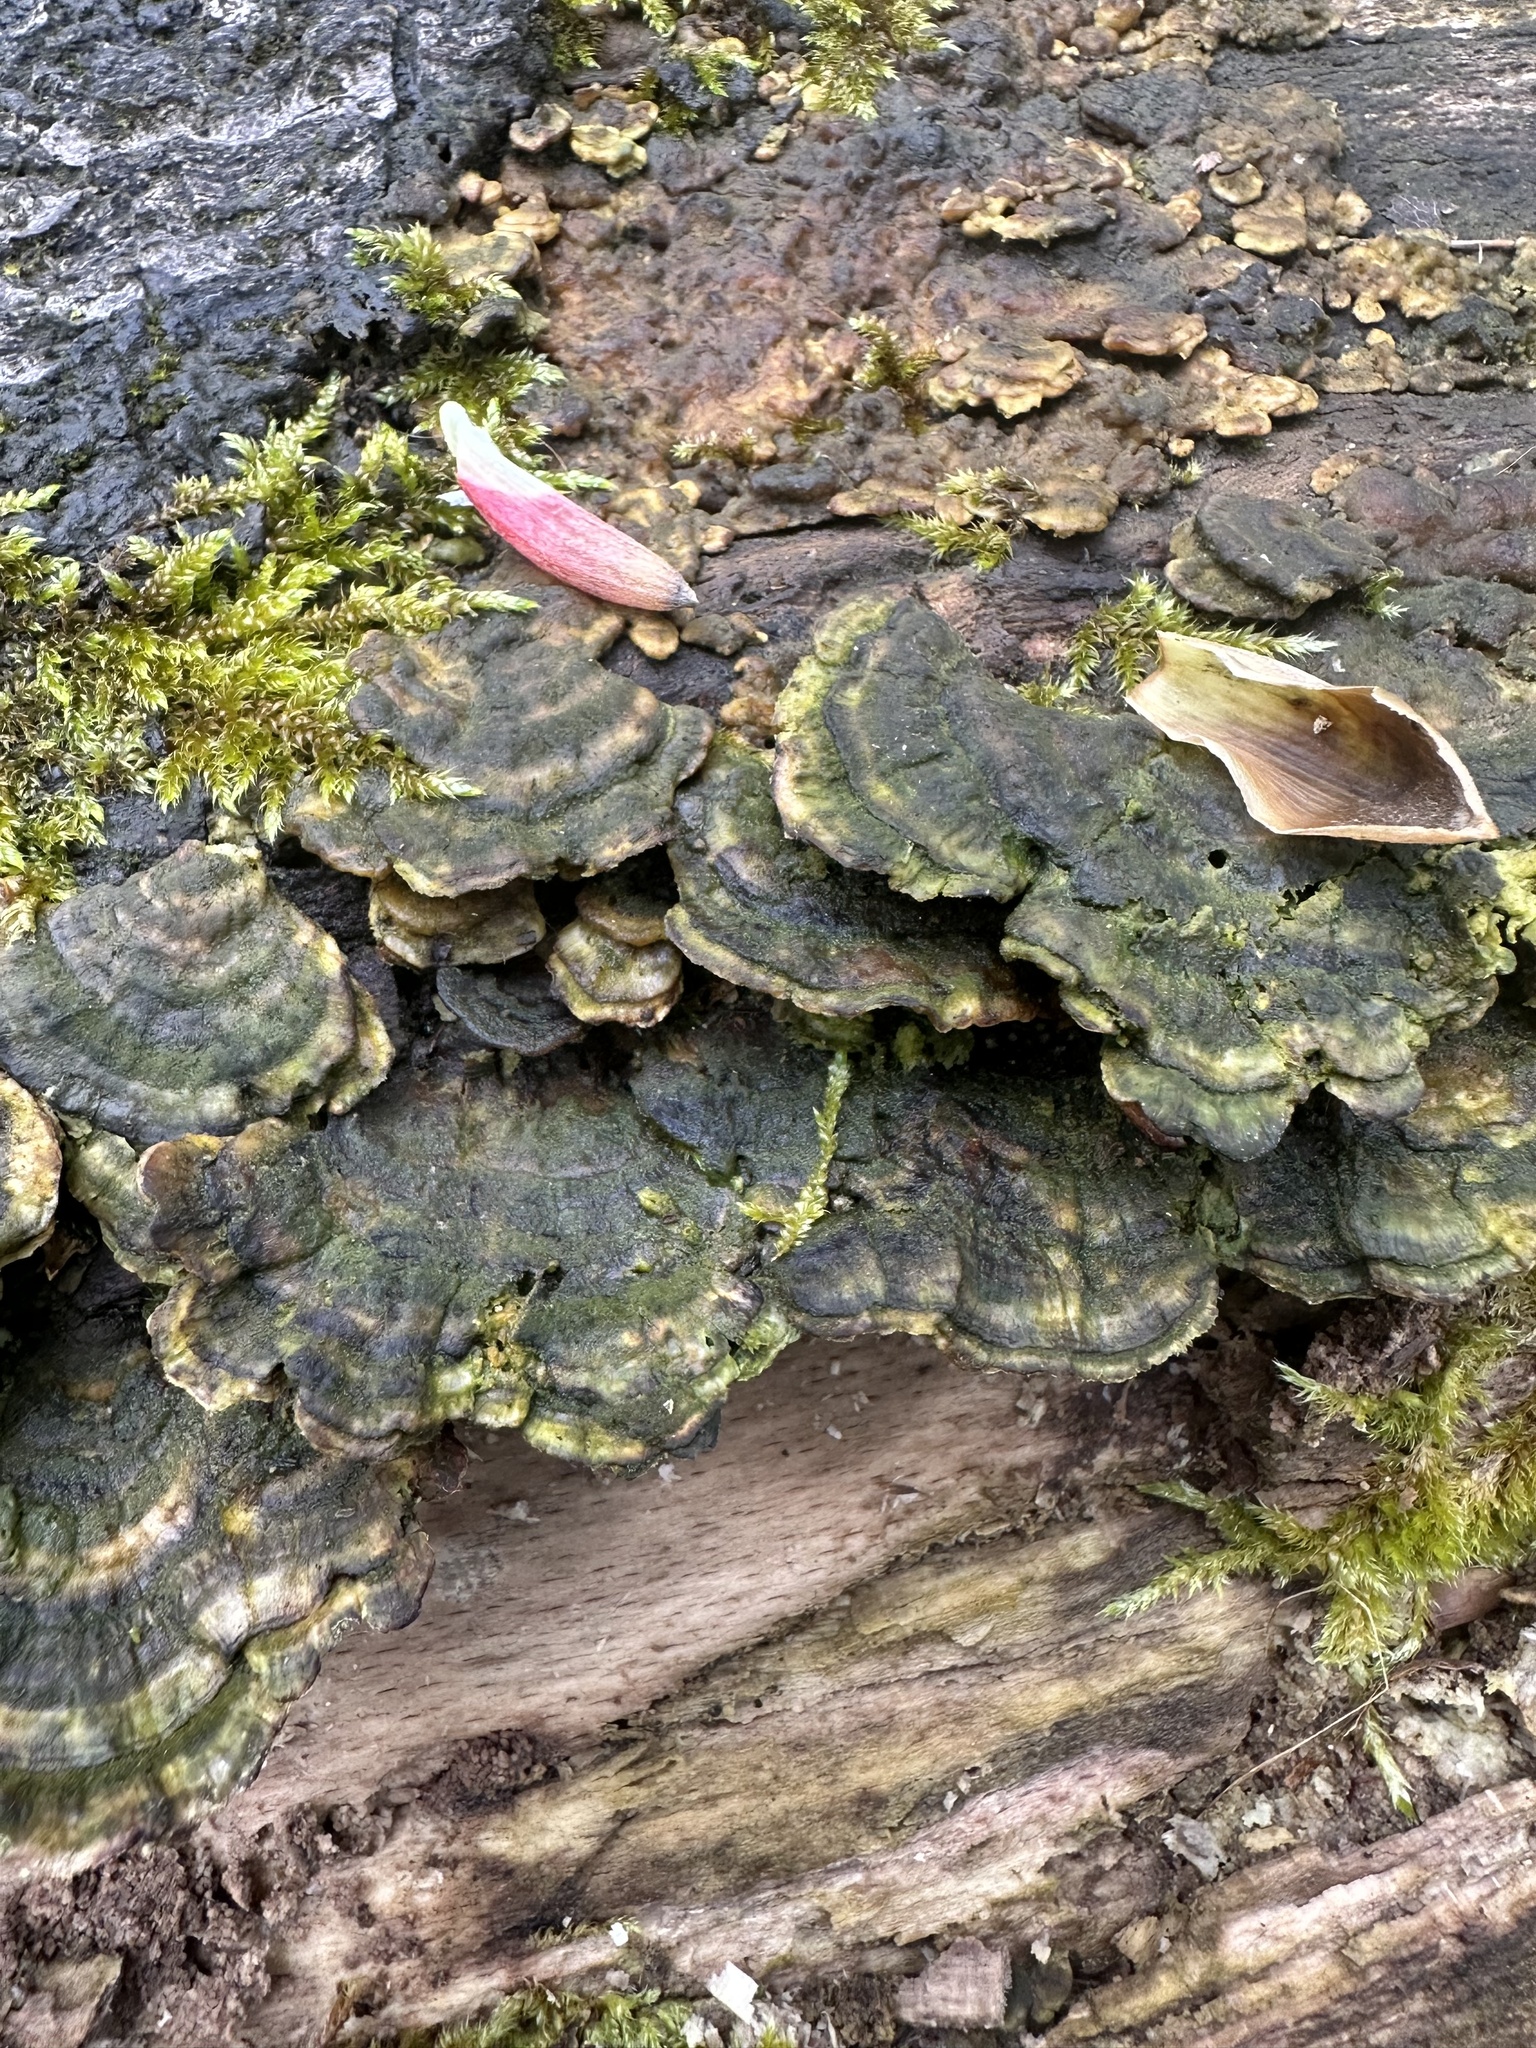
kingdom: Fungi
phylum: Basidiomycota
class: Agaricomycetes
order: Polyporales
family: Polyporaceae
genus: Trametes
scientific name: Trametes versicolor
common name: Turkeytail
